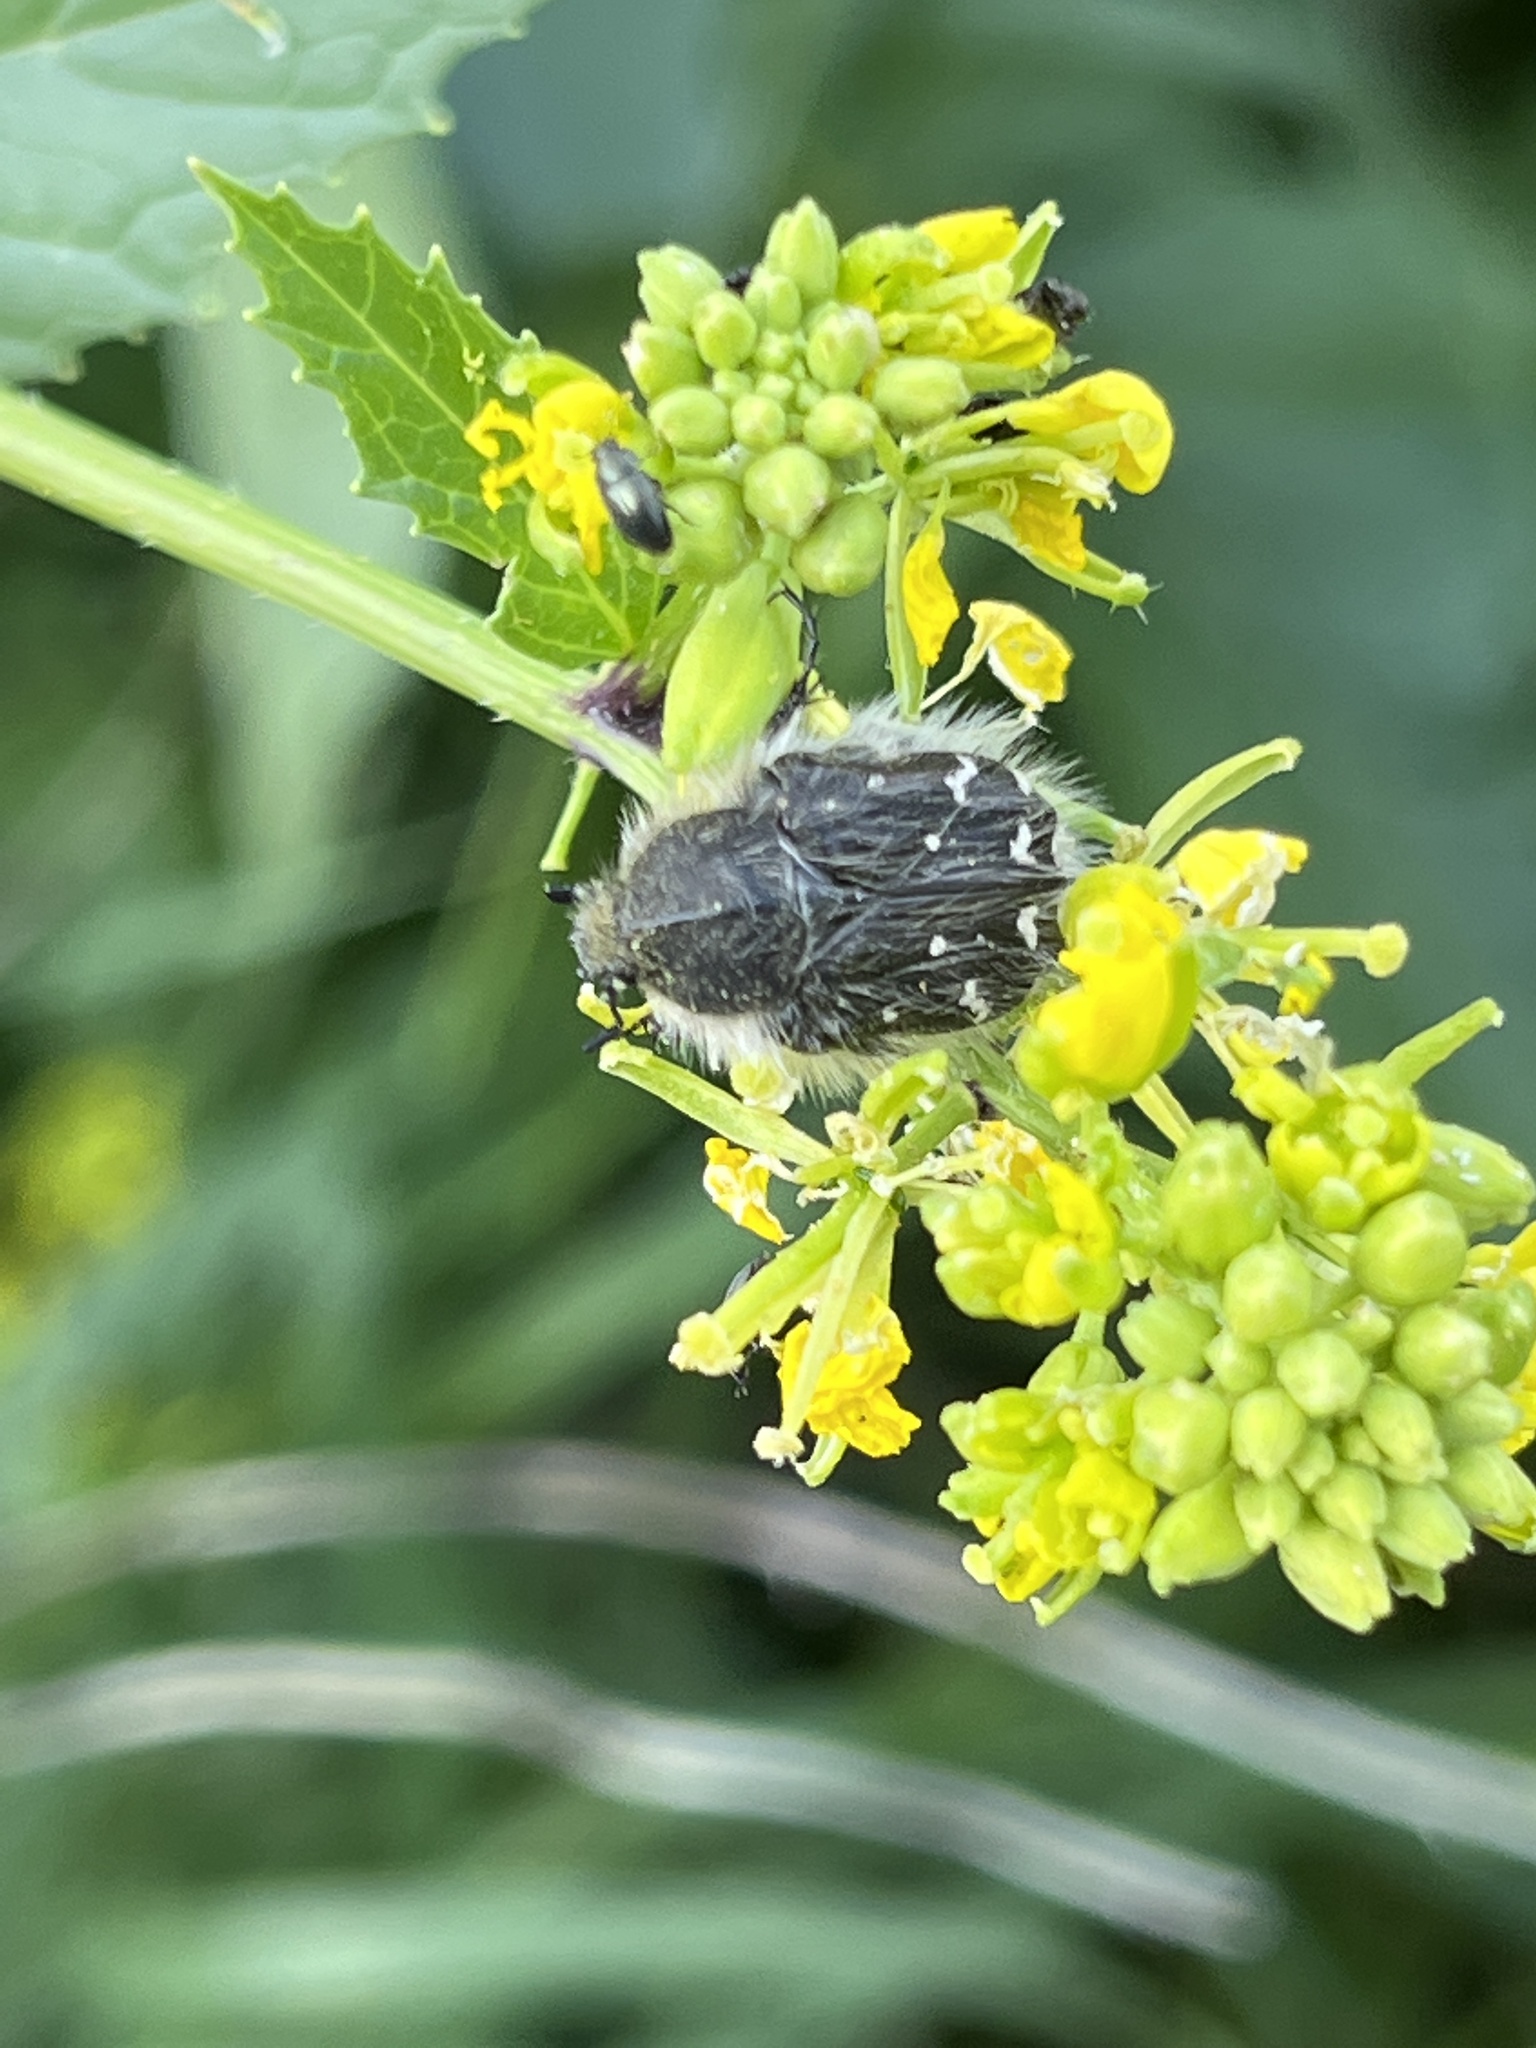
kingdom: Animalia
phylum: Arthropoda
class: Insecta
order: Coleoptera
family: Scarabaeidae
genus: Tropinota
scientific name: Tropinota hirta
